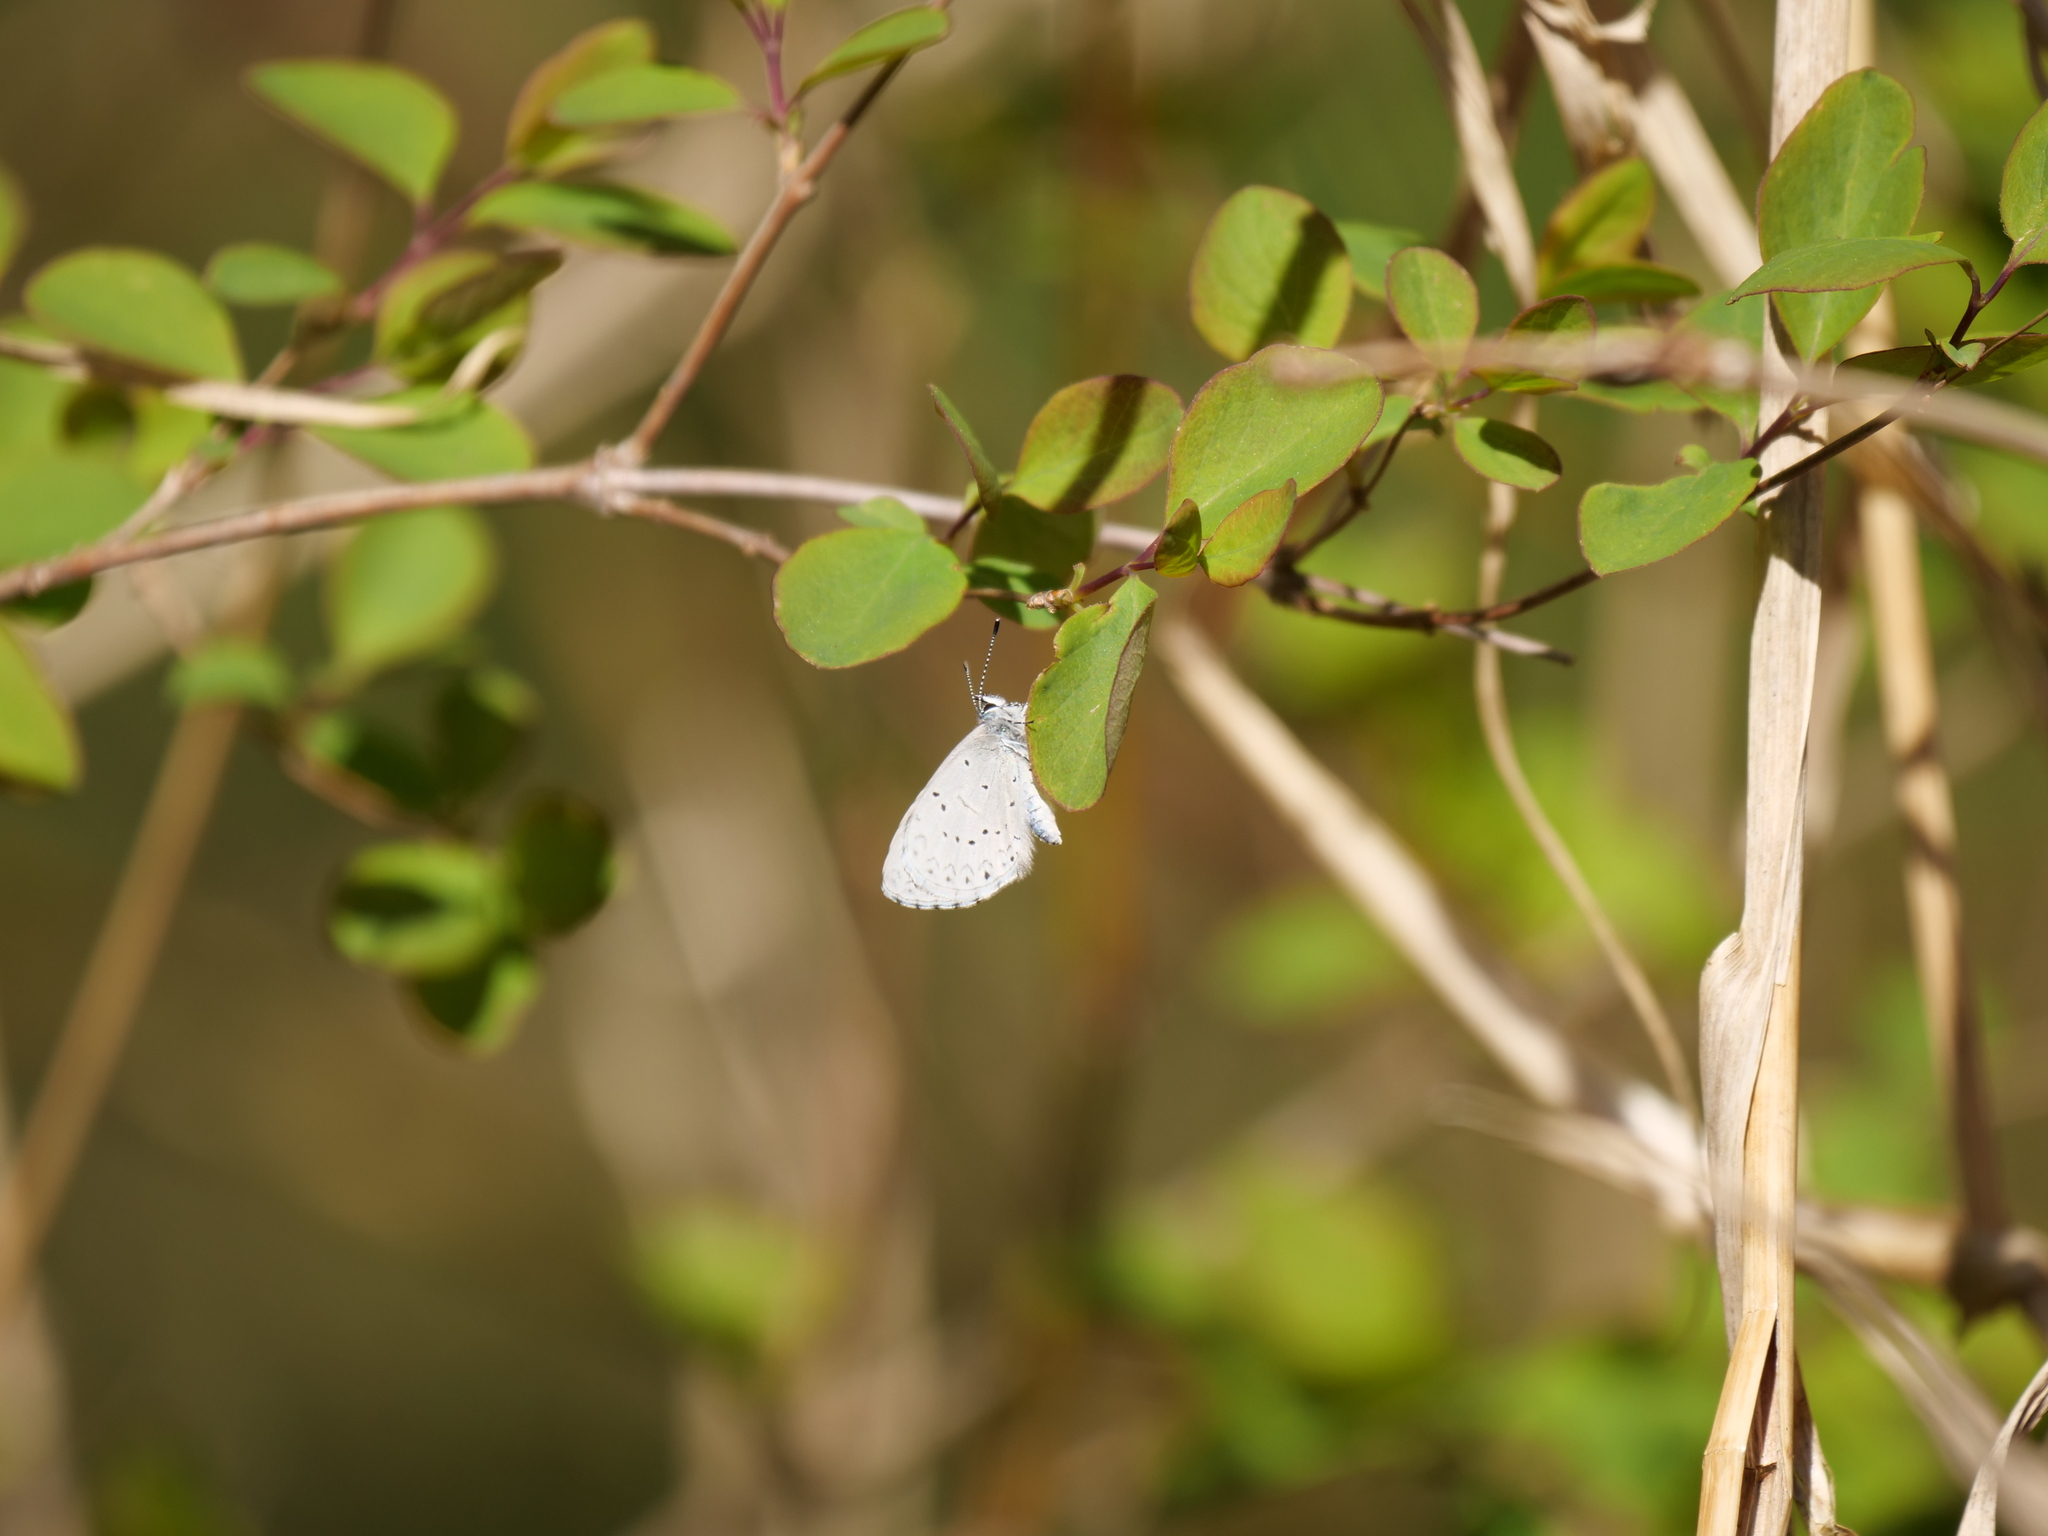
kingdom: Animalia
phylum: Arthropoda
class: Insecta
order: Lepidoptera
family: Lycaenidae
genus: Celastrina
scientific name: Celastrina ladon
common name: Spring azure
